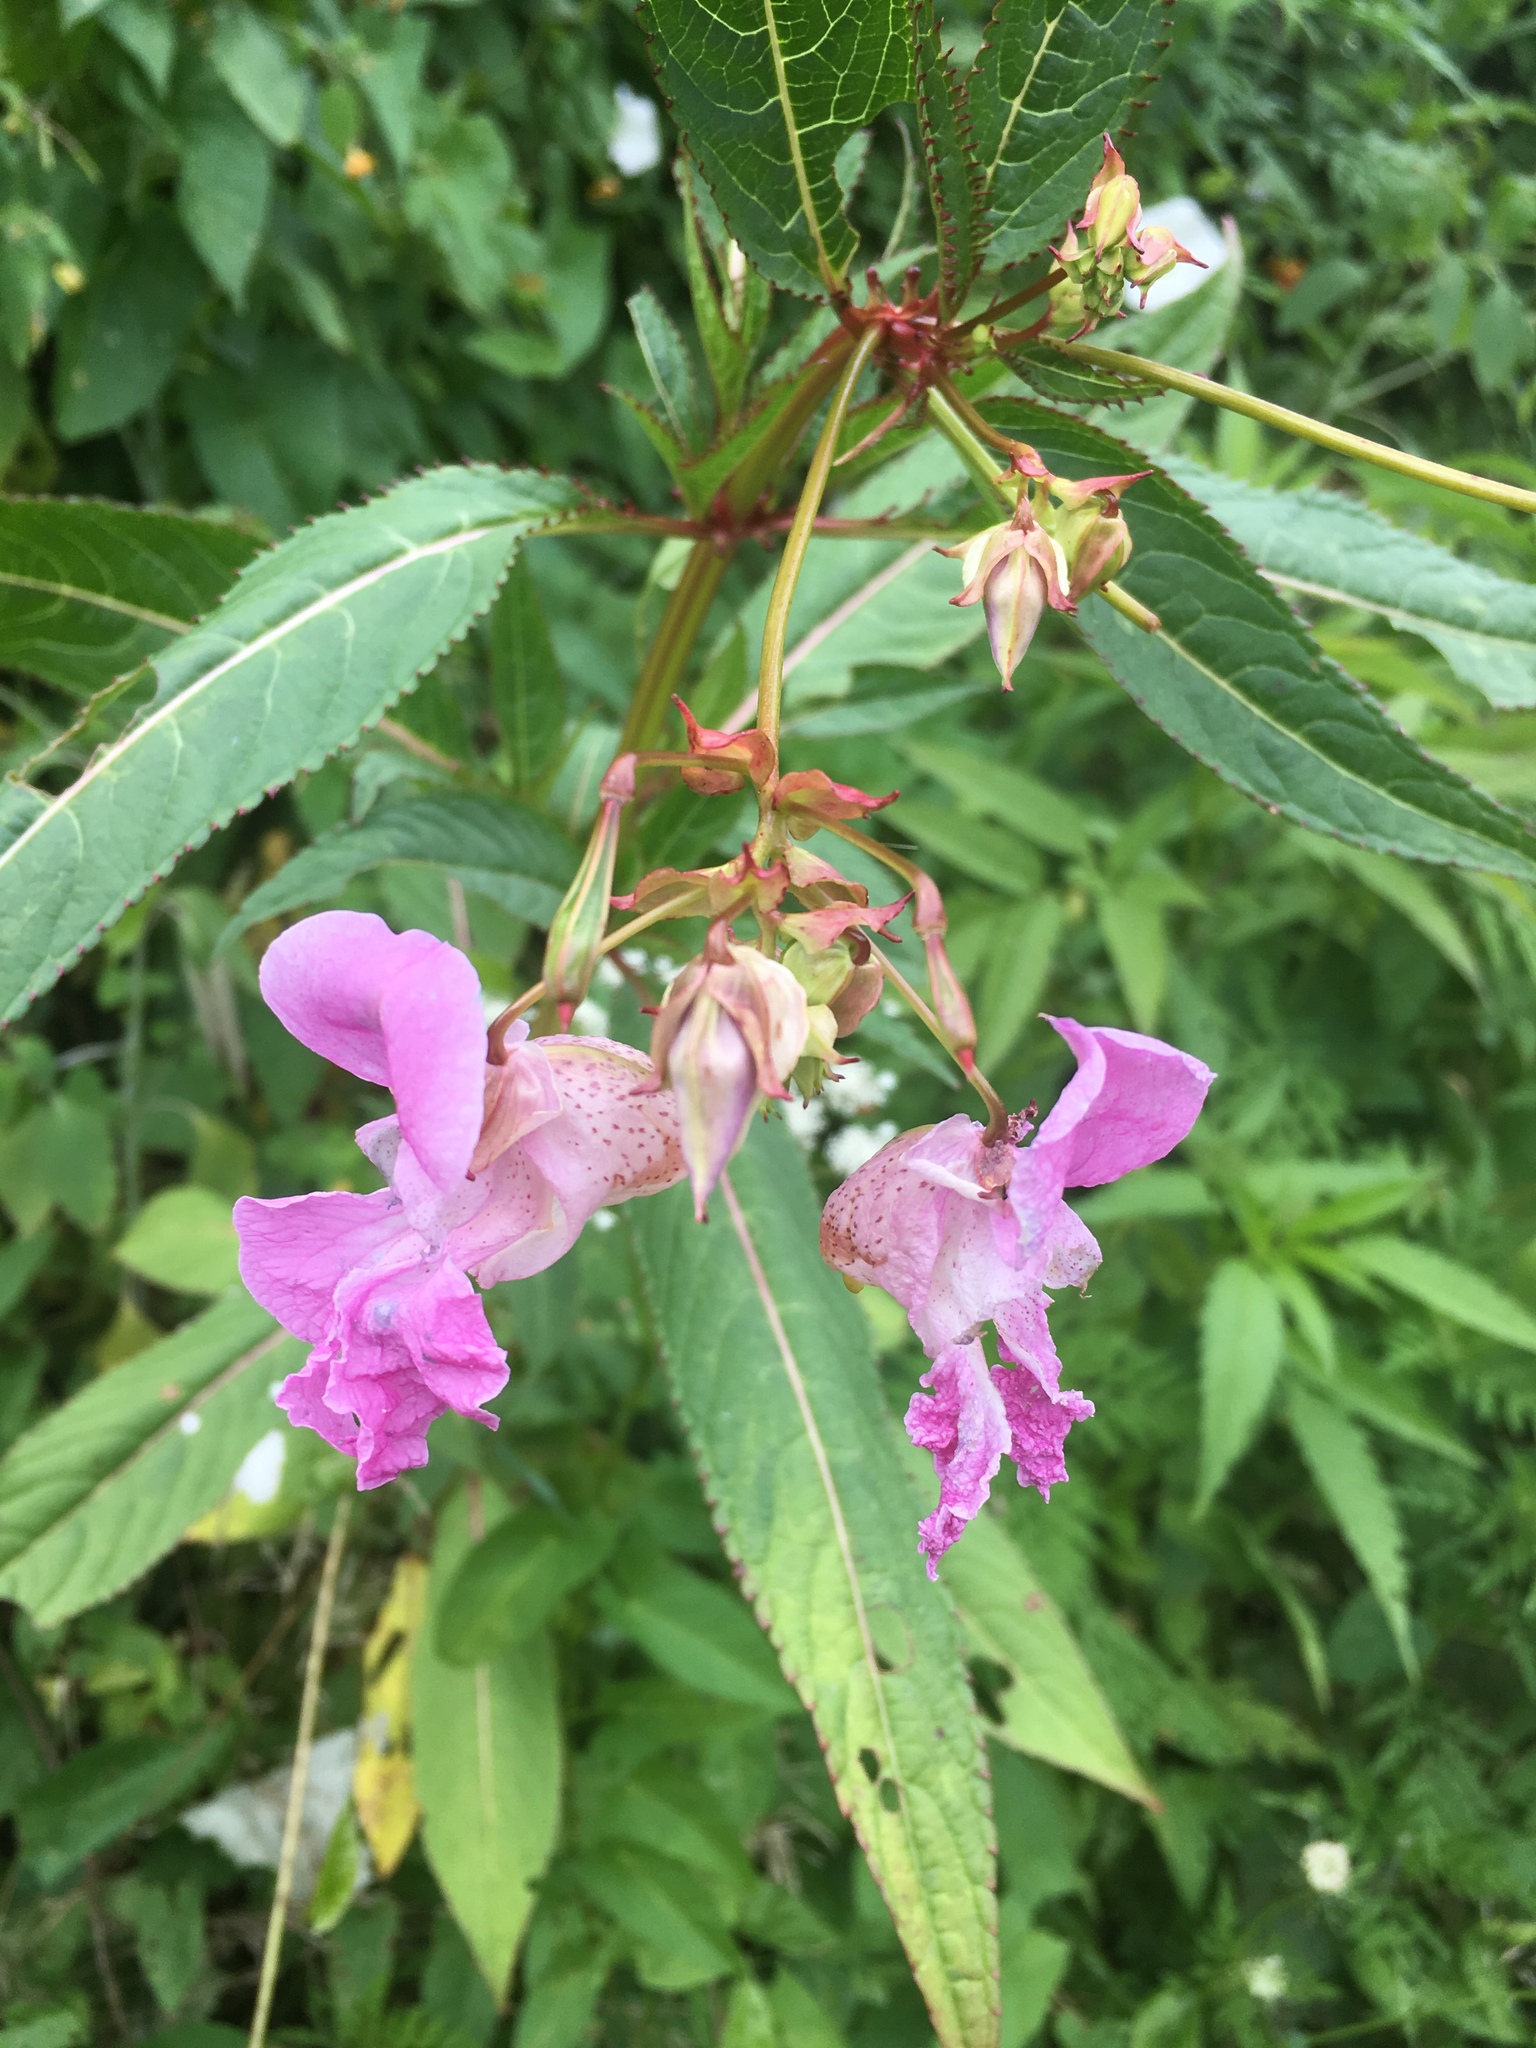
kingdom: Plantae
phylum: Tracheophyta
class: Magnoliopsida
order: Ericales
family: Balsaminaceae
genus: Impatiens
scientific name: Impatiens glandulifera
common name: Himalayan balsam
